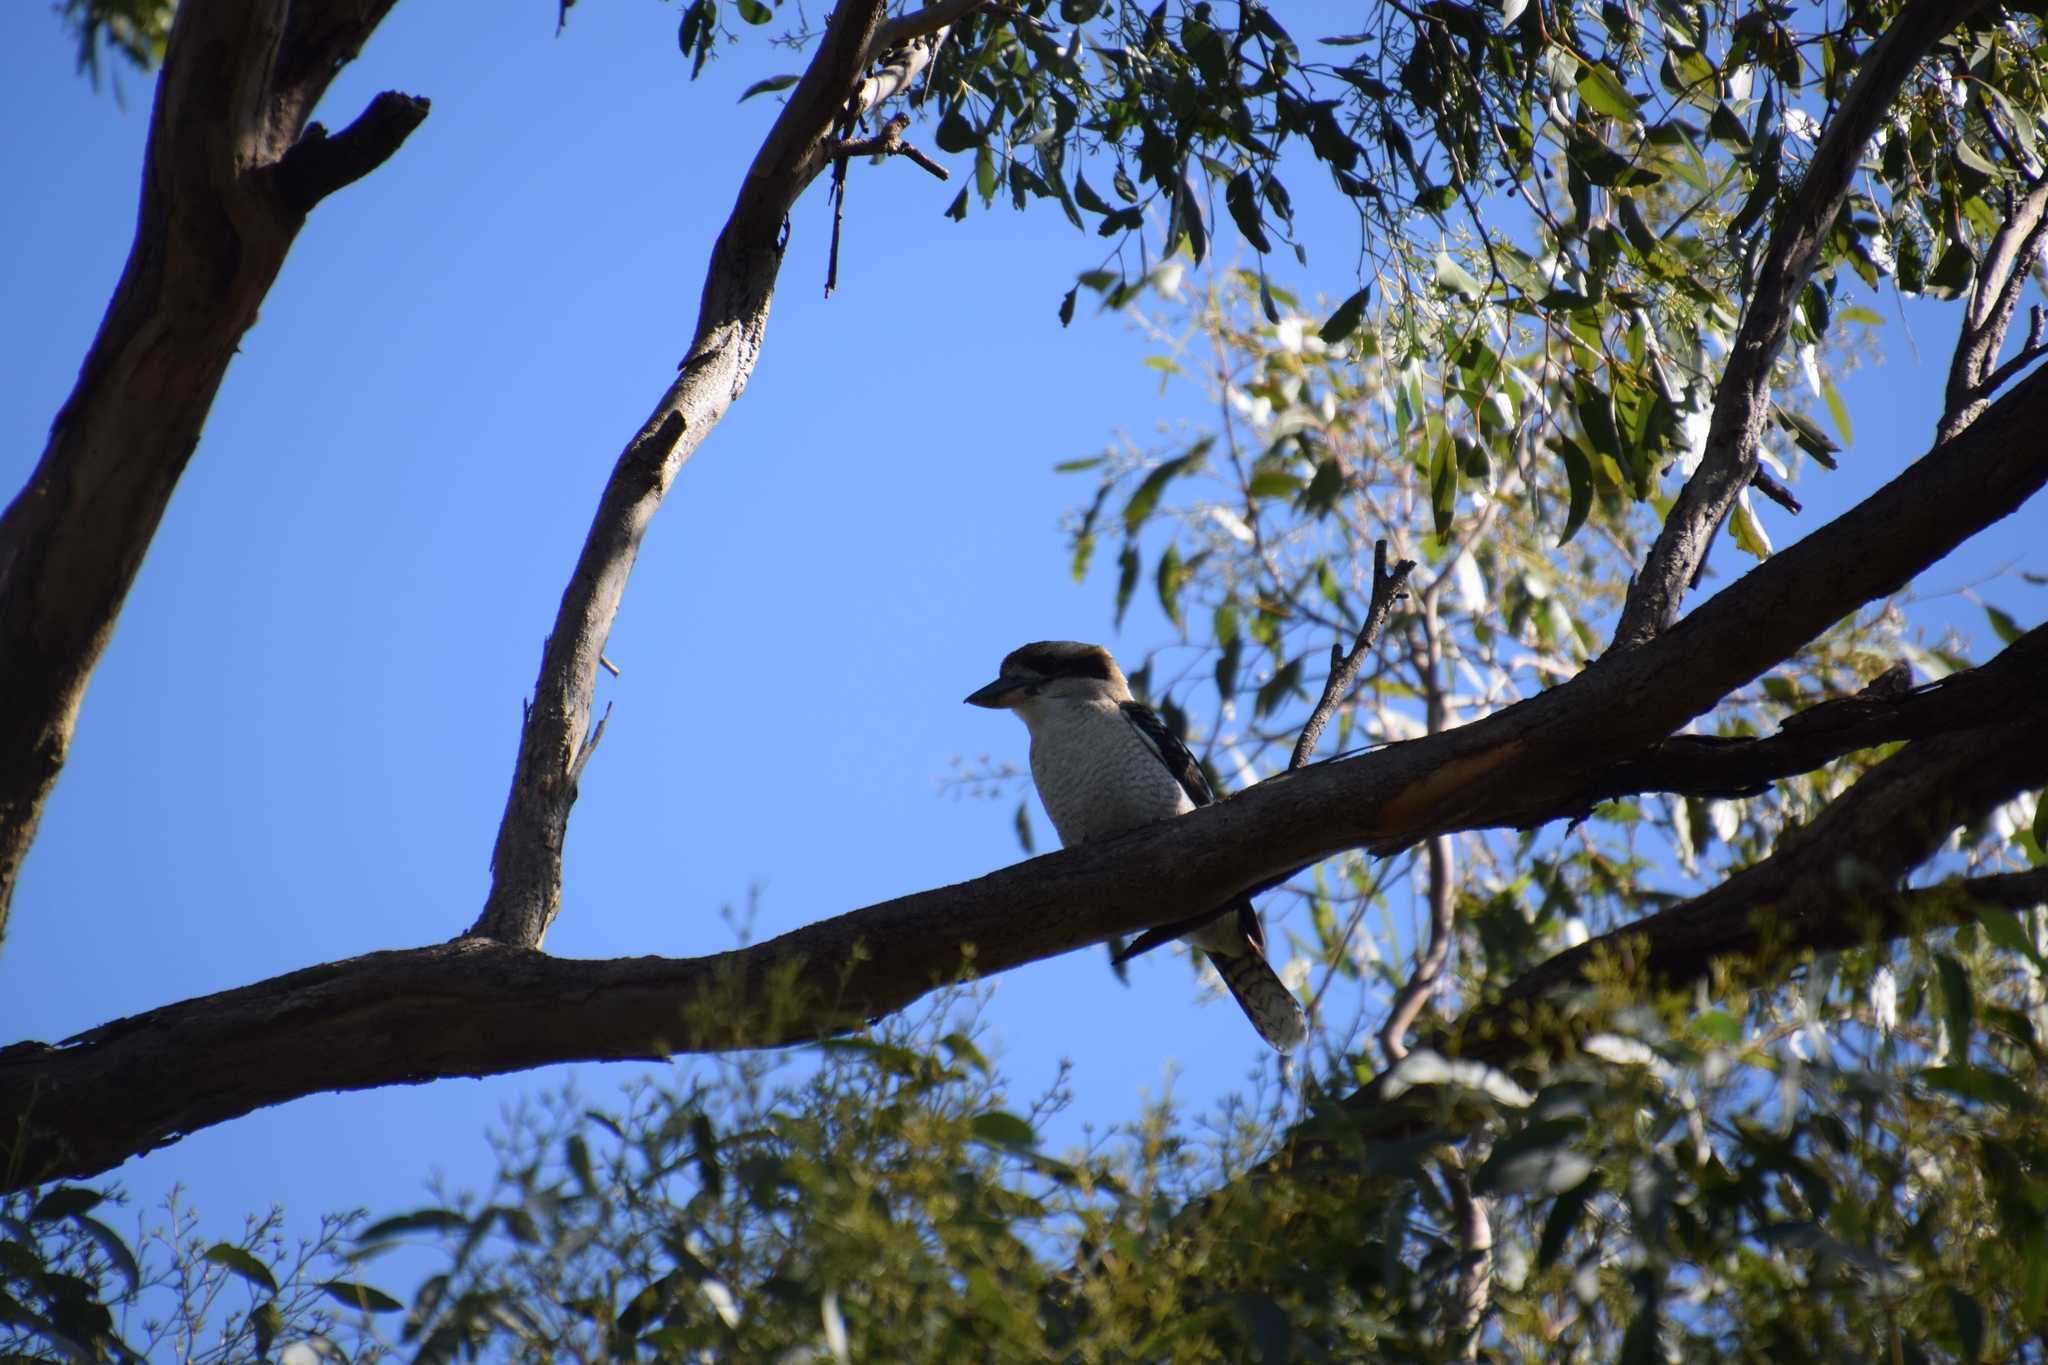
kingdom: Animalia
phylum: Chordata
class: Aves
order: Coraciiformes
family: Alcedinidae
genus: Dacelo
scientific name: Dacelo novaeguineae
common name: Laughing kookaburra
